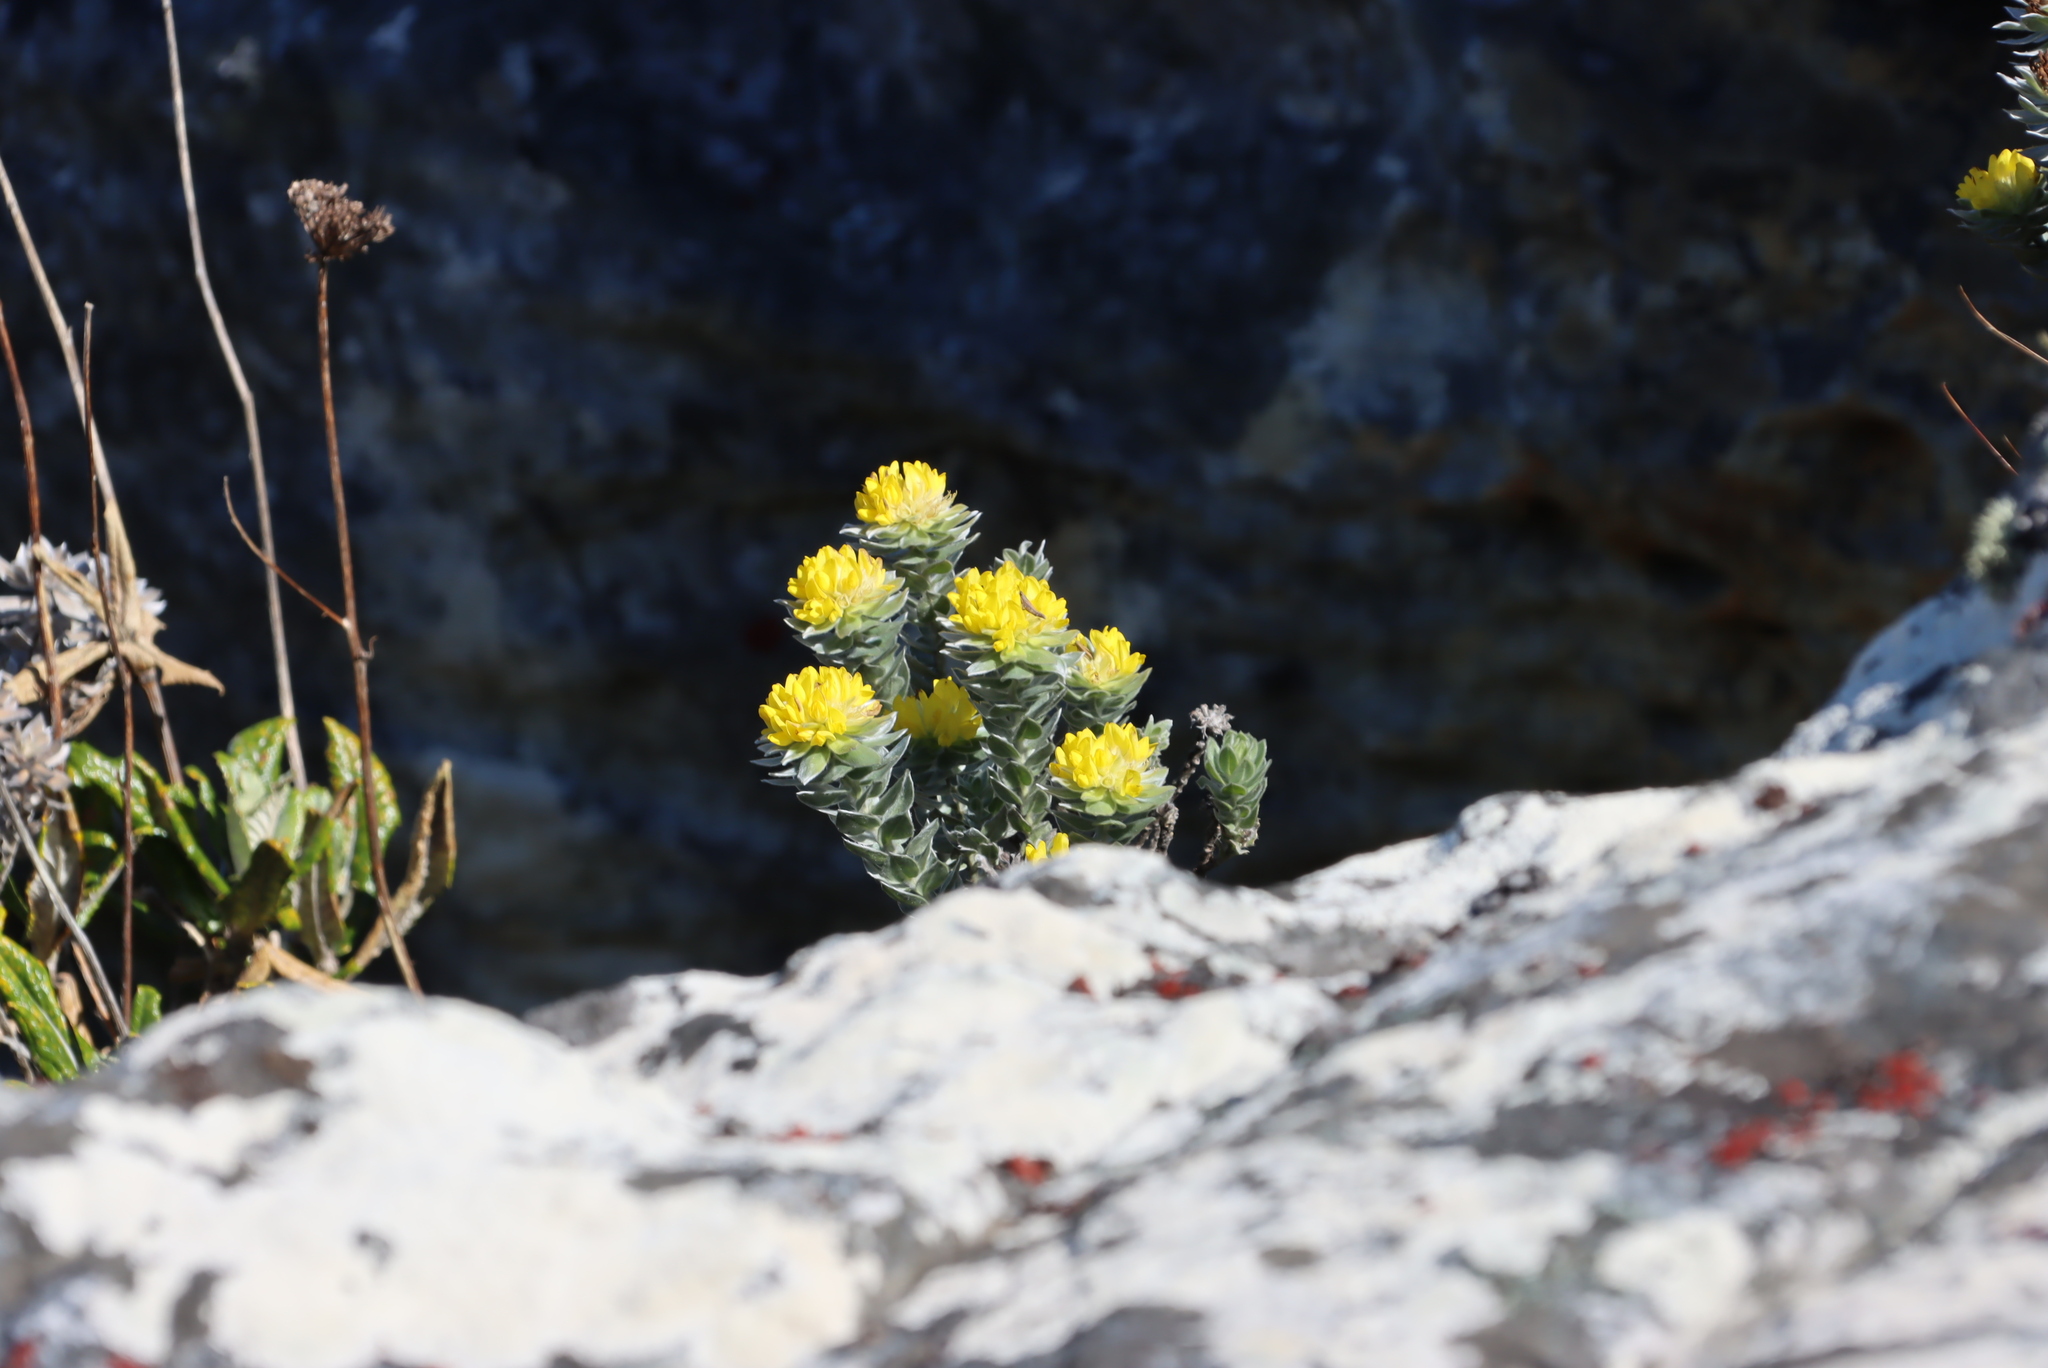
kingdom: Plantae
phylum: Tracheophyta
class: Magnoliopsida
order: Fabales
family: Fabaceae
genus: Xiphotheca
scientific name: Xiphotheca fruticosa
